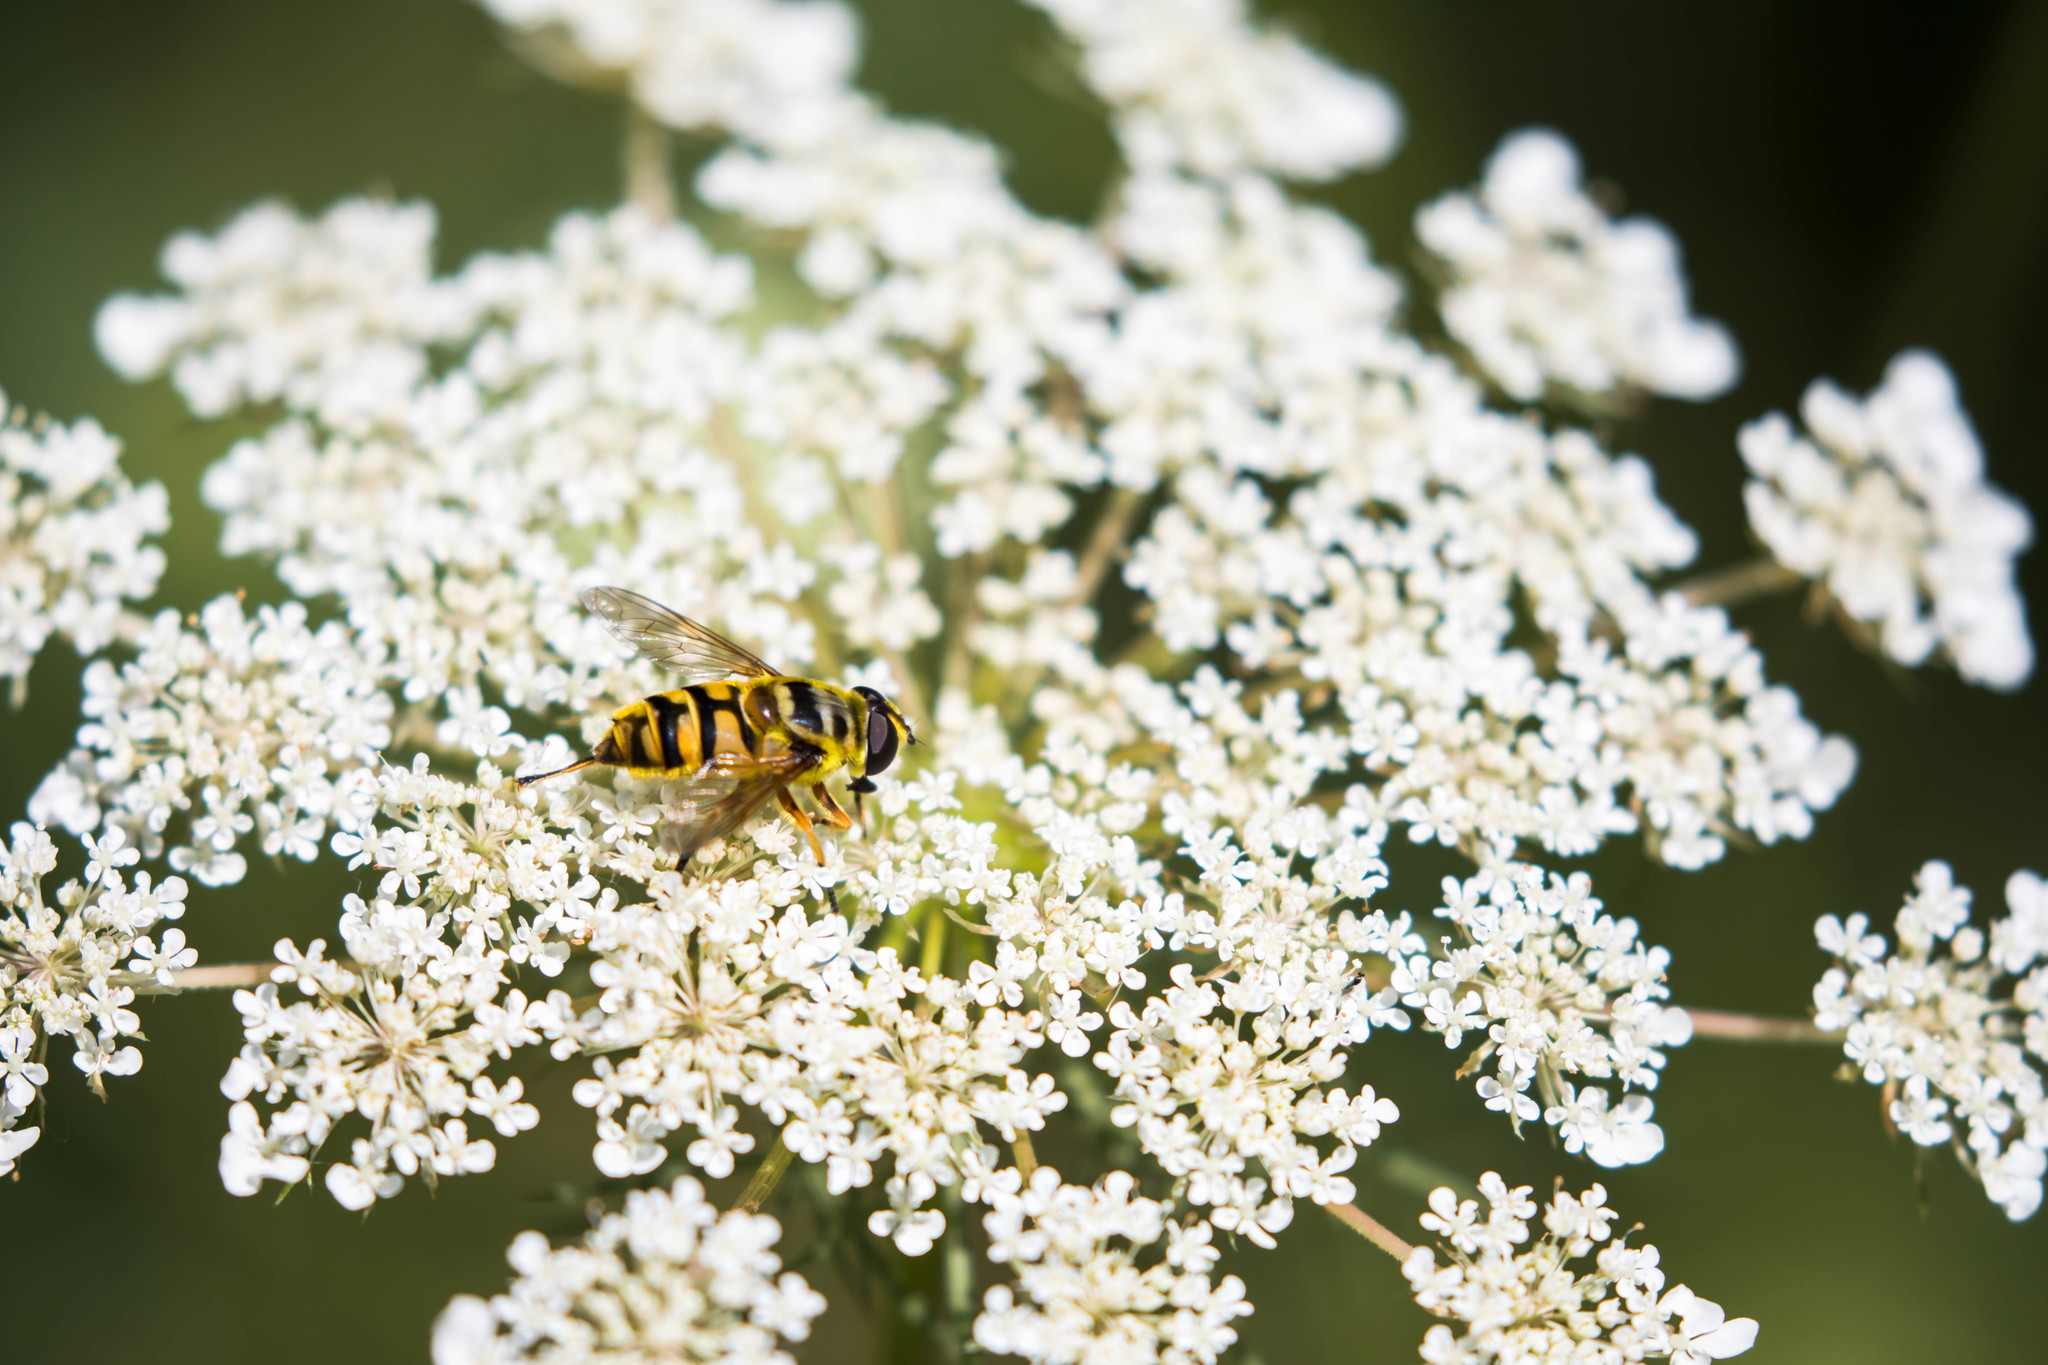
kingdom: Animalia
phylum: Arthropoda
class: Insecta
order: Diptera
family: Syrphidae
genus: Myathropa
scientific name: Myathropa florea
